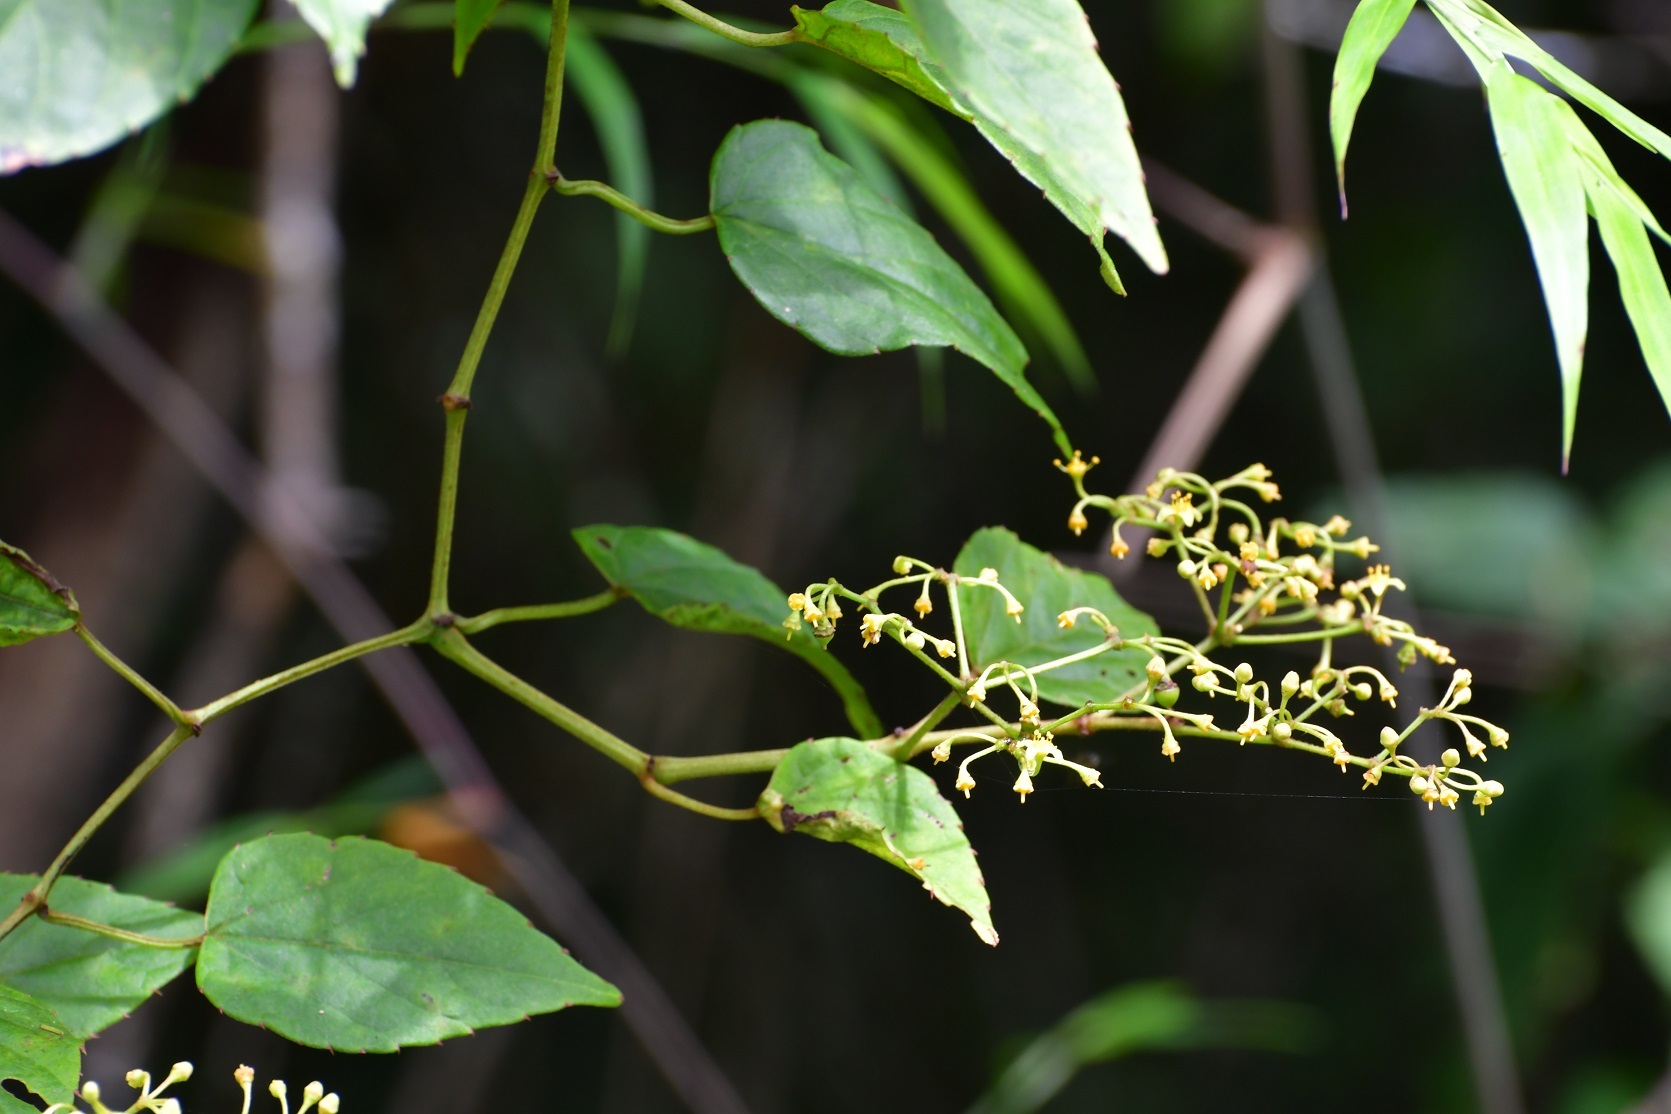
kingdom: Plantae
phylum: Tracheophyta
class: Magnoliopsida
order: Vitales
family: Vitaceae
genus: Cissus
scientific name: Cissus verticillata
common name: Princess vine
